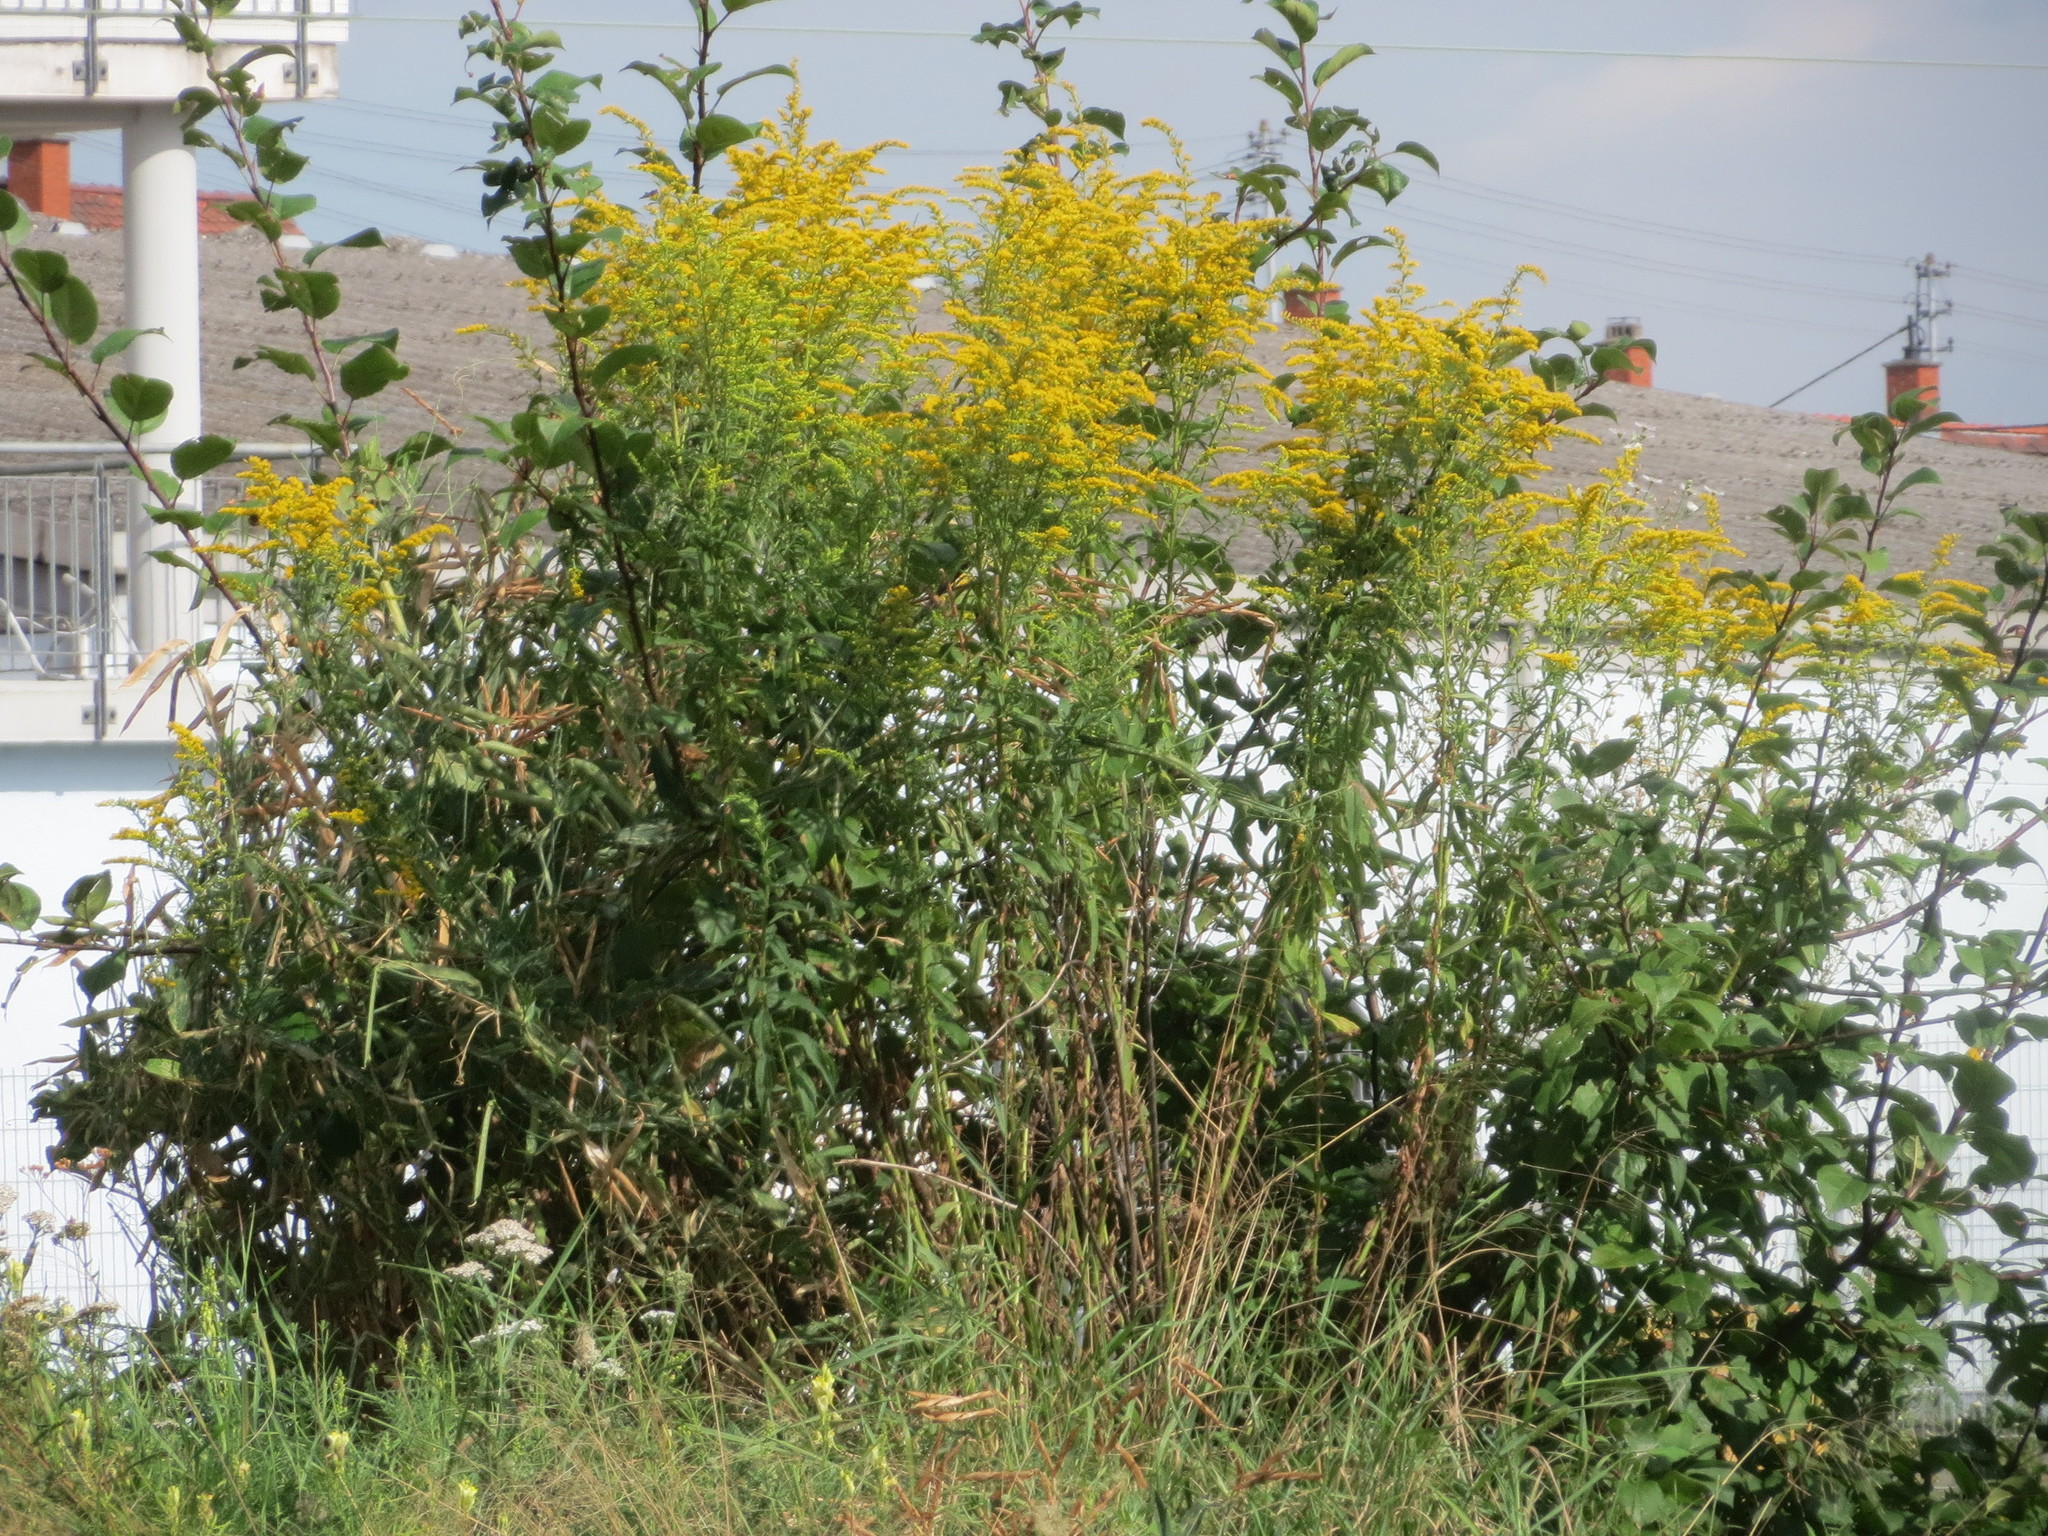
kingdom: Plantae
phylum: Tracheophyta
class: Magnoliopsida
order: Asterales
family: Asteraceae
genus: Solidago
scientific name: Solidago canadensis
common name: Canada goldenrod
